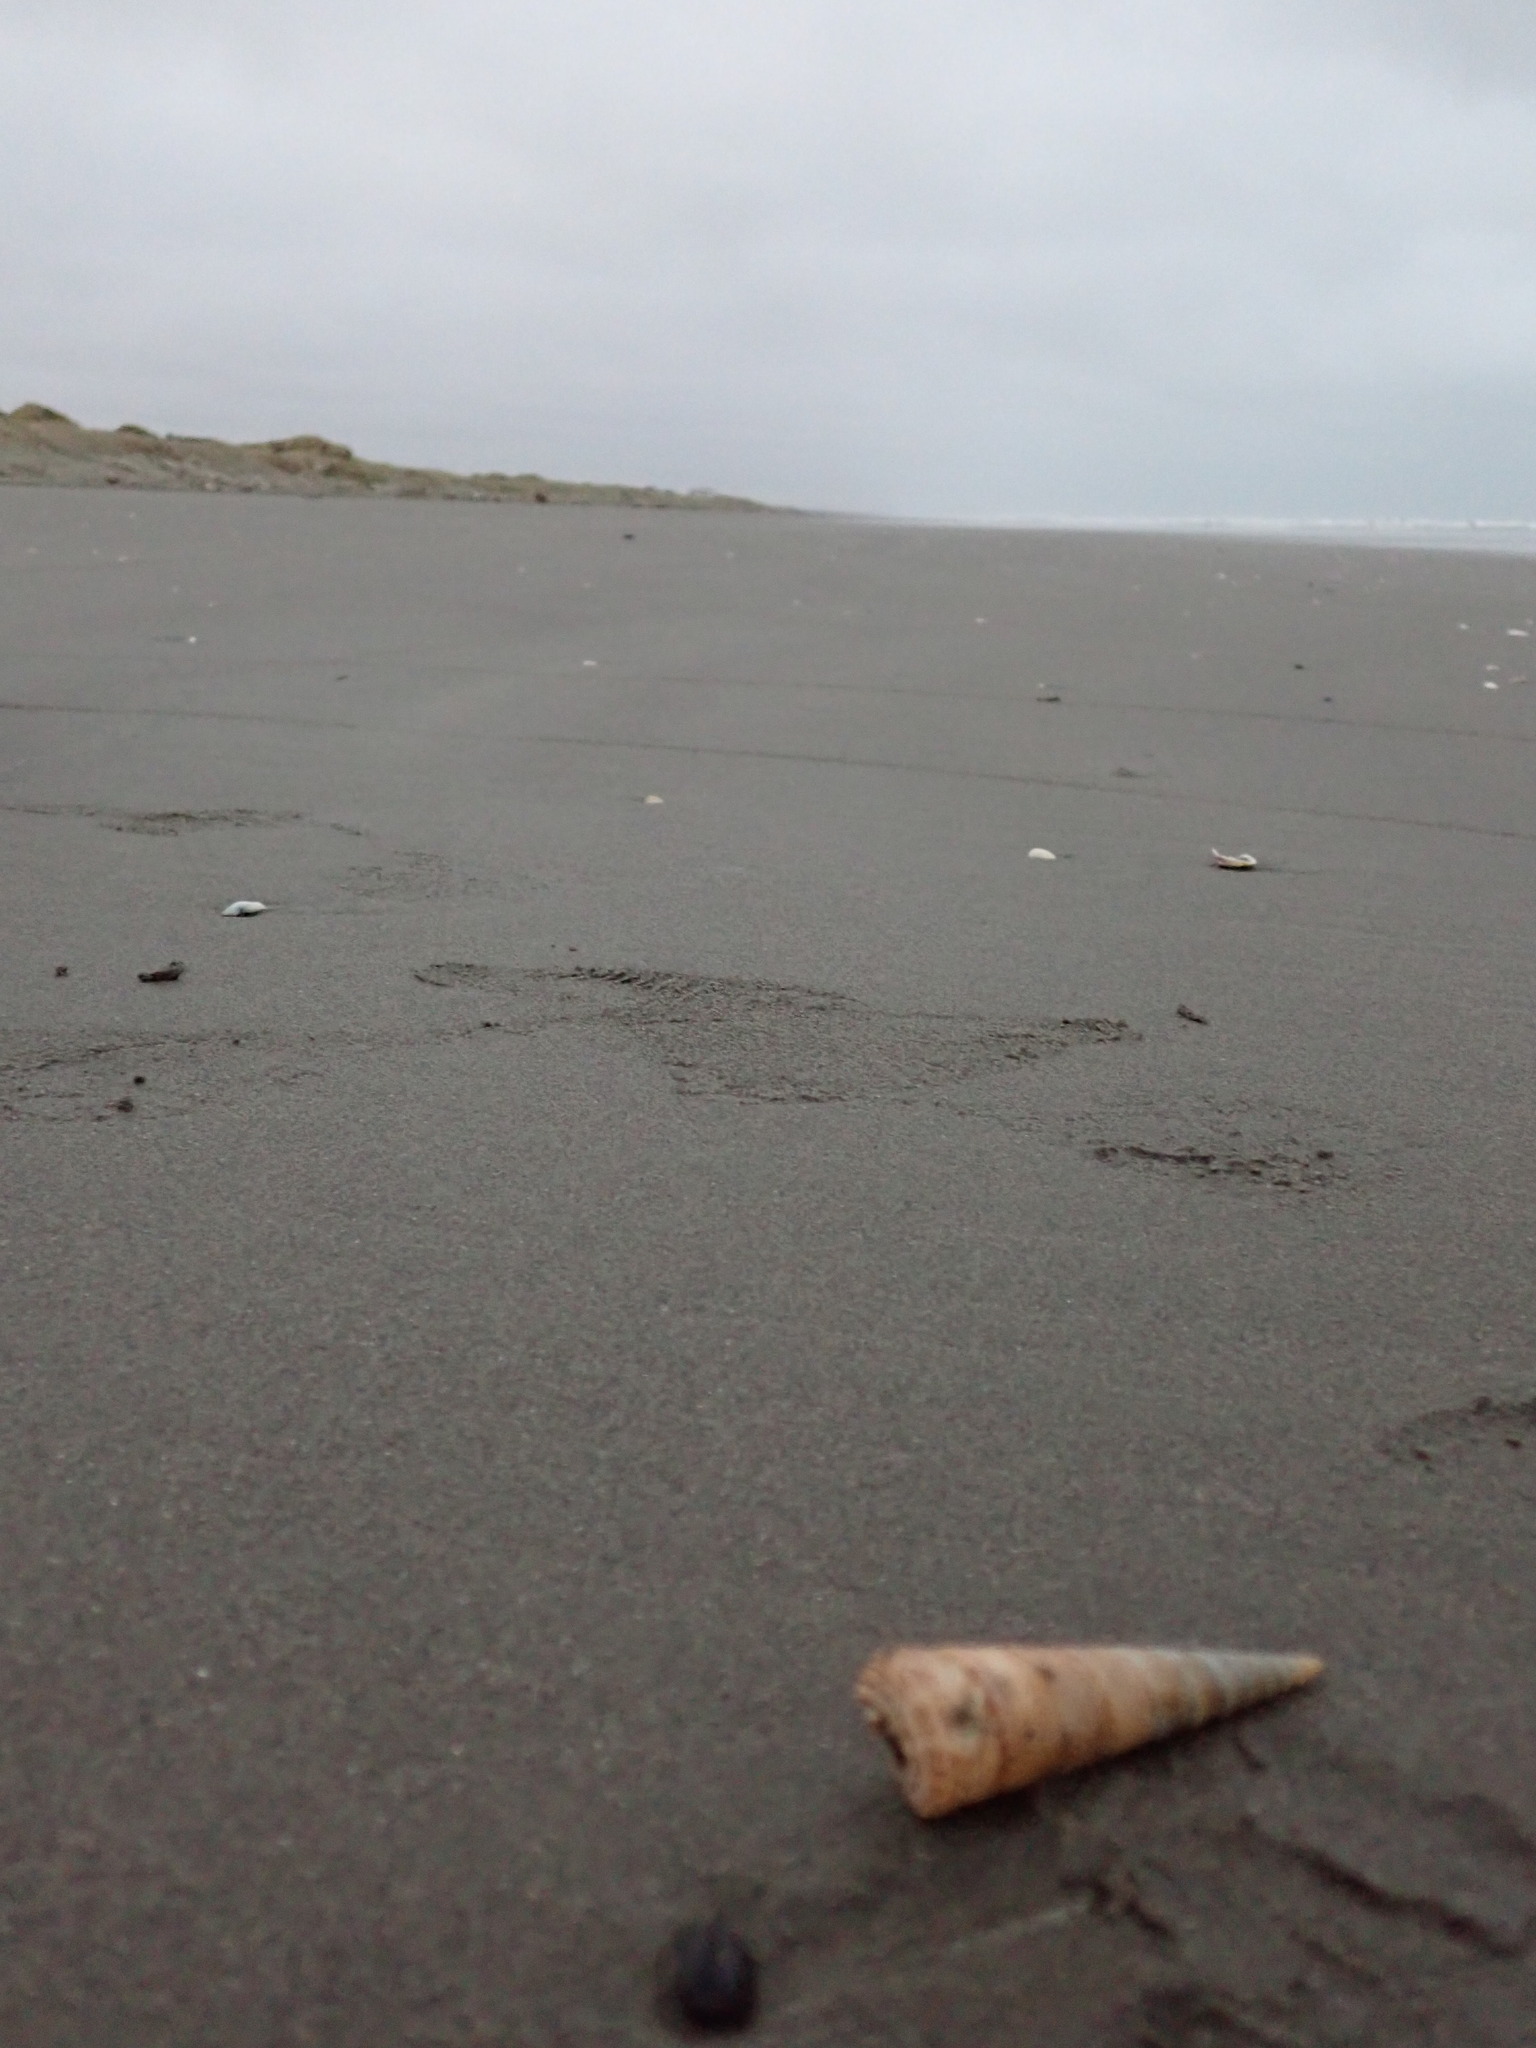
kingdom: Animalia
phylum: Mollusca
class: Gastropoda
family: Turritellidae
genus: Zeacolpus
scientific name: Zeacolpus vittatus
